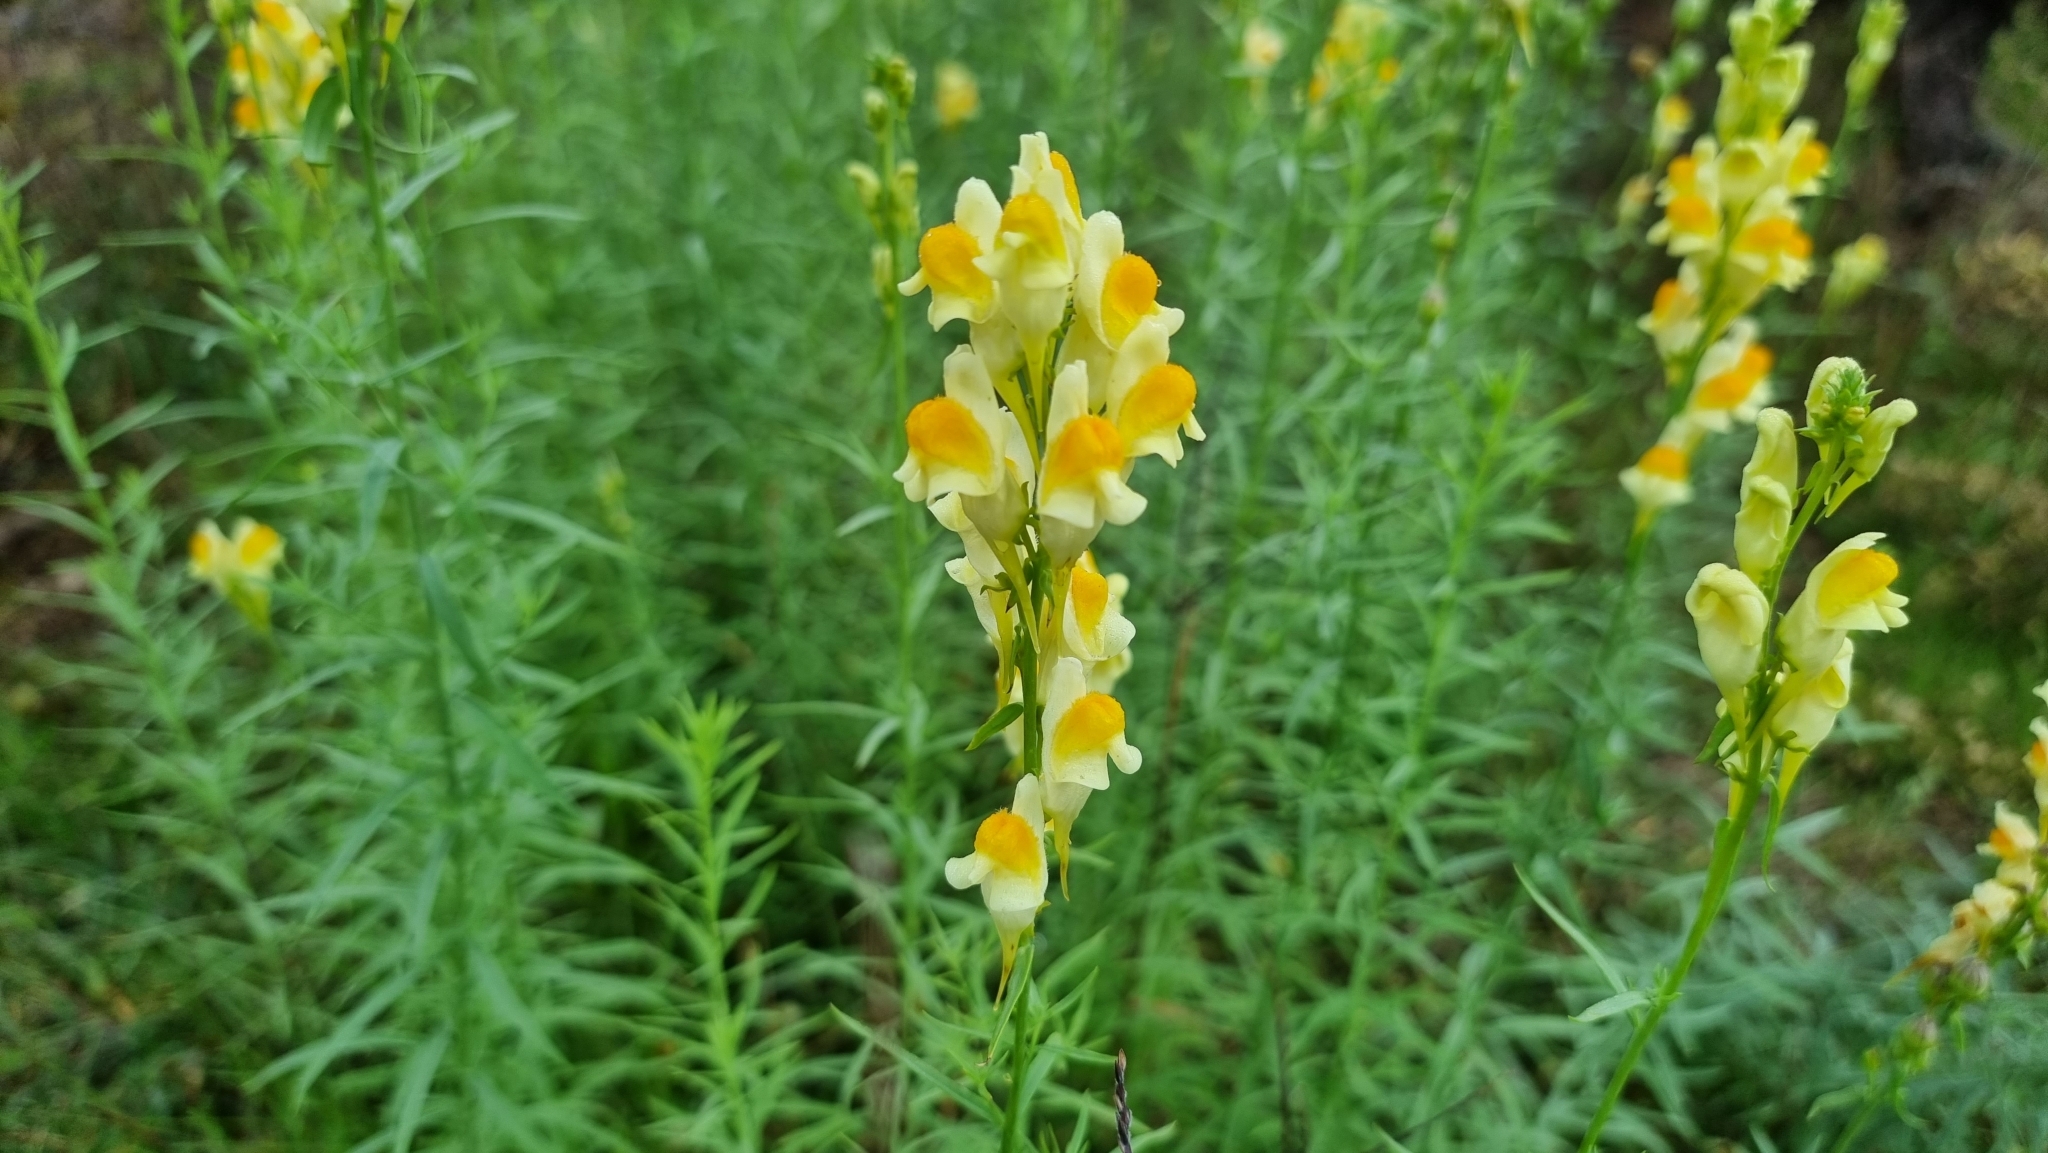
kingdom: Plantae
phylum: Tracheophyta
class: Magnoliopsida
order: Lamiales
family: Plantaginaceae
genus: Linaria
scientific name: Linaria vulgaris
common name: Butter and eggs
